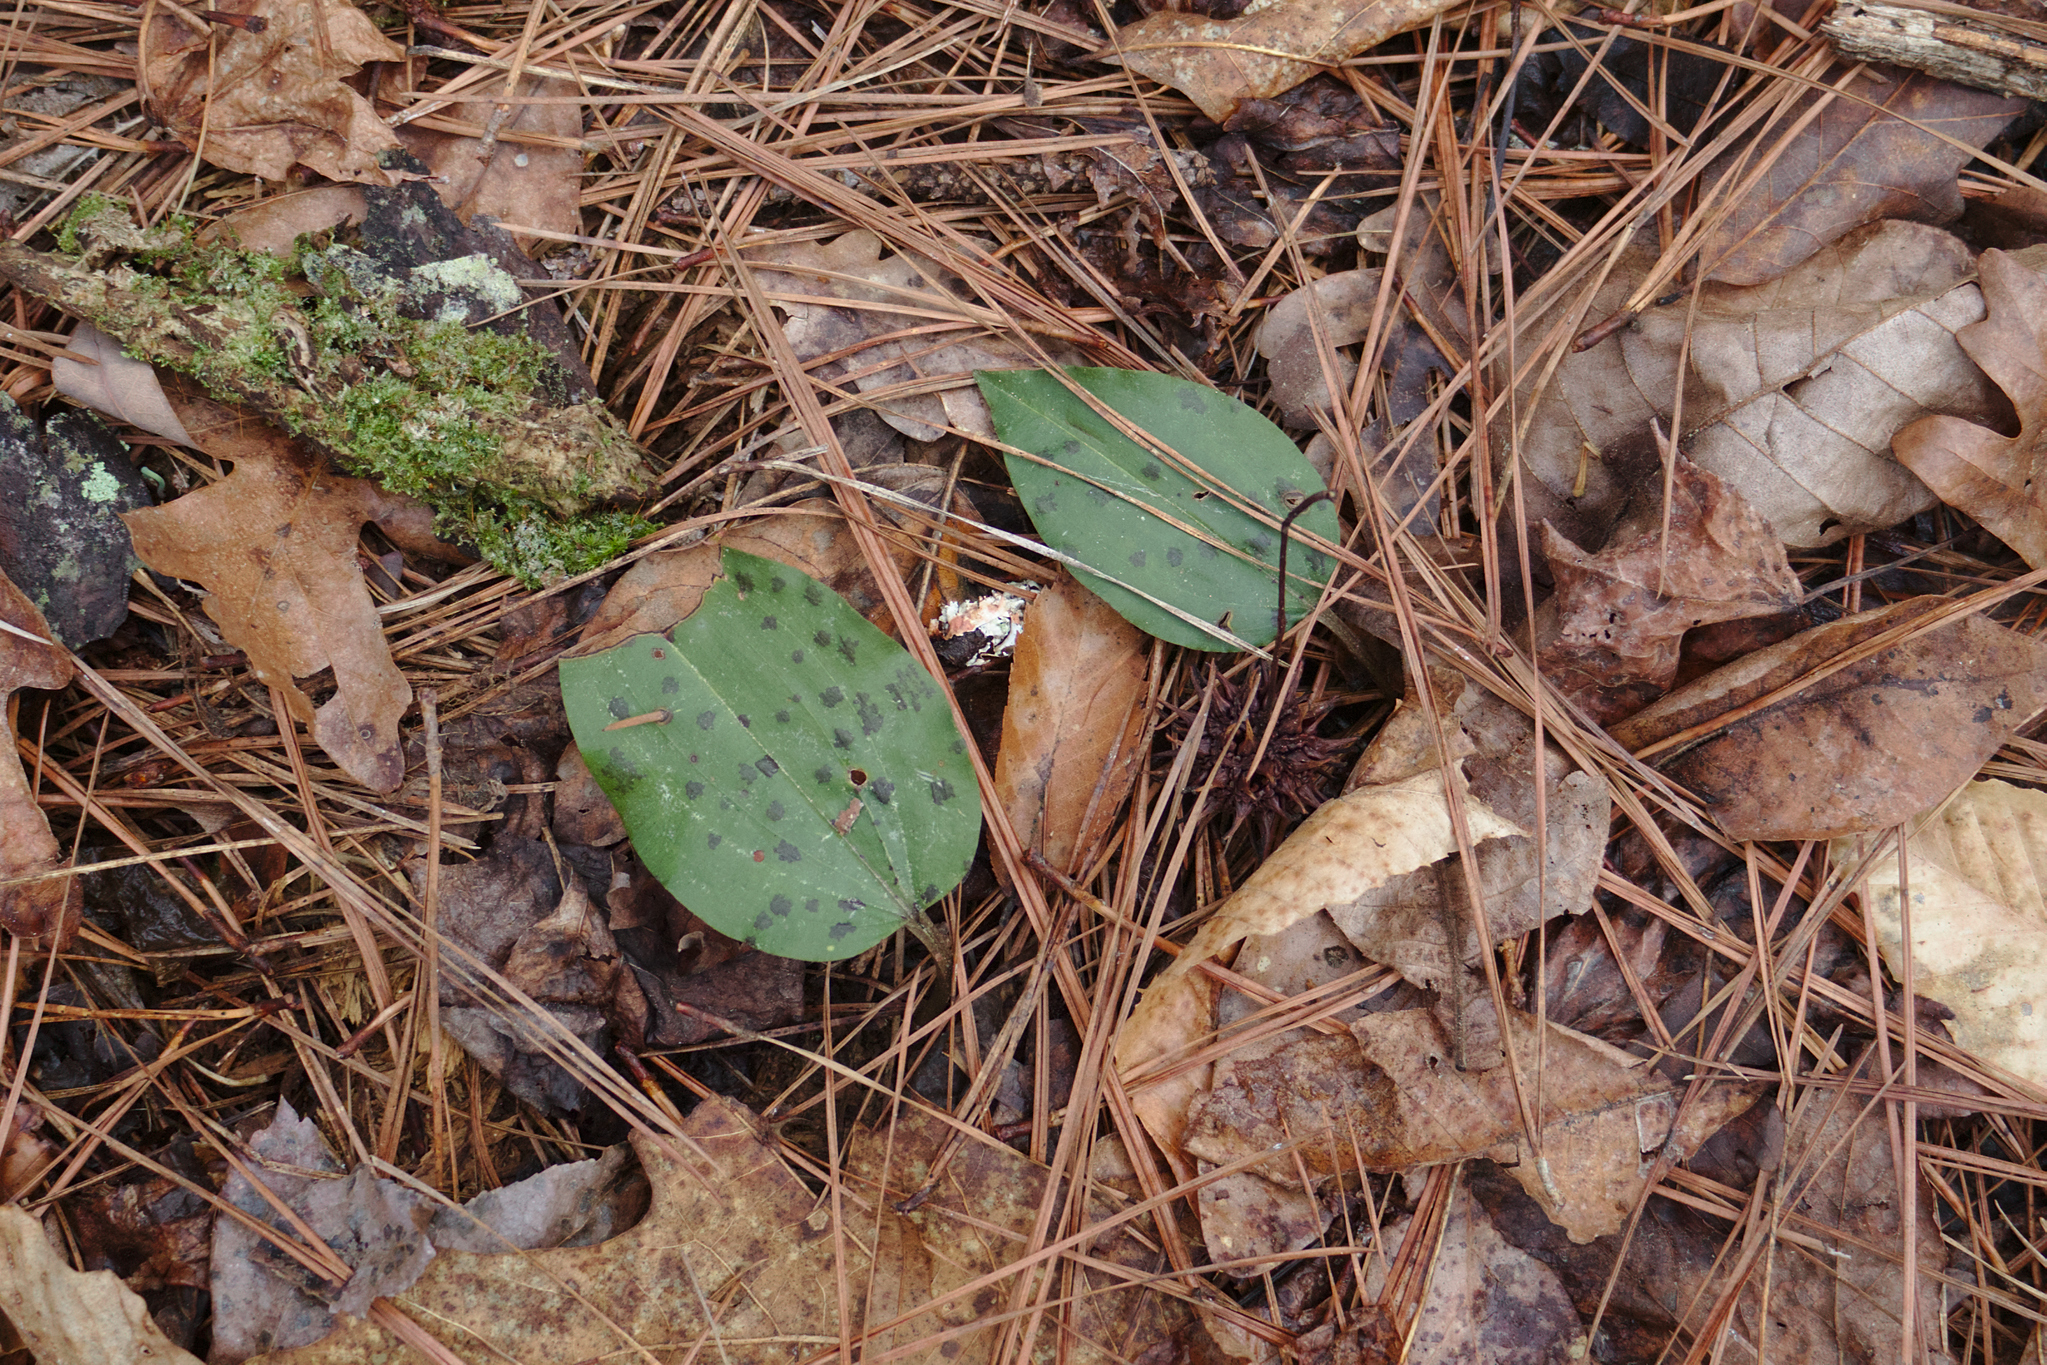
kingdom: Plantae
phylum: Tracheophyta
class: Liliopsida
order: Asparagales
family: Orchidaceae
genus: Tipularia
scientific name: Tipularia discolor
